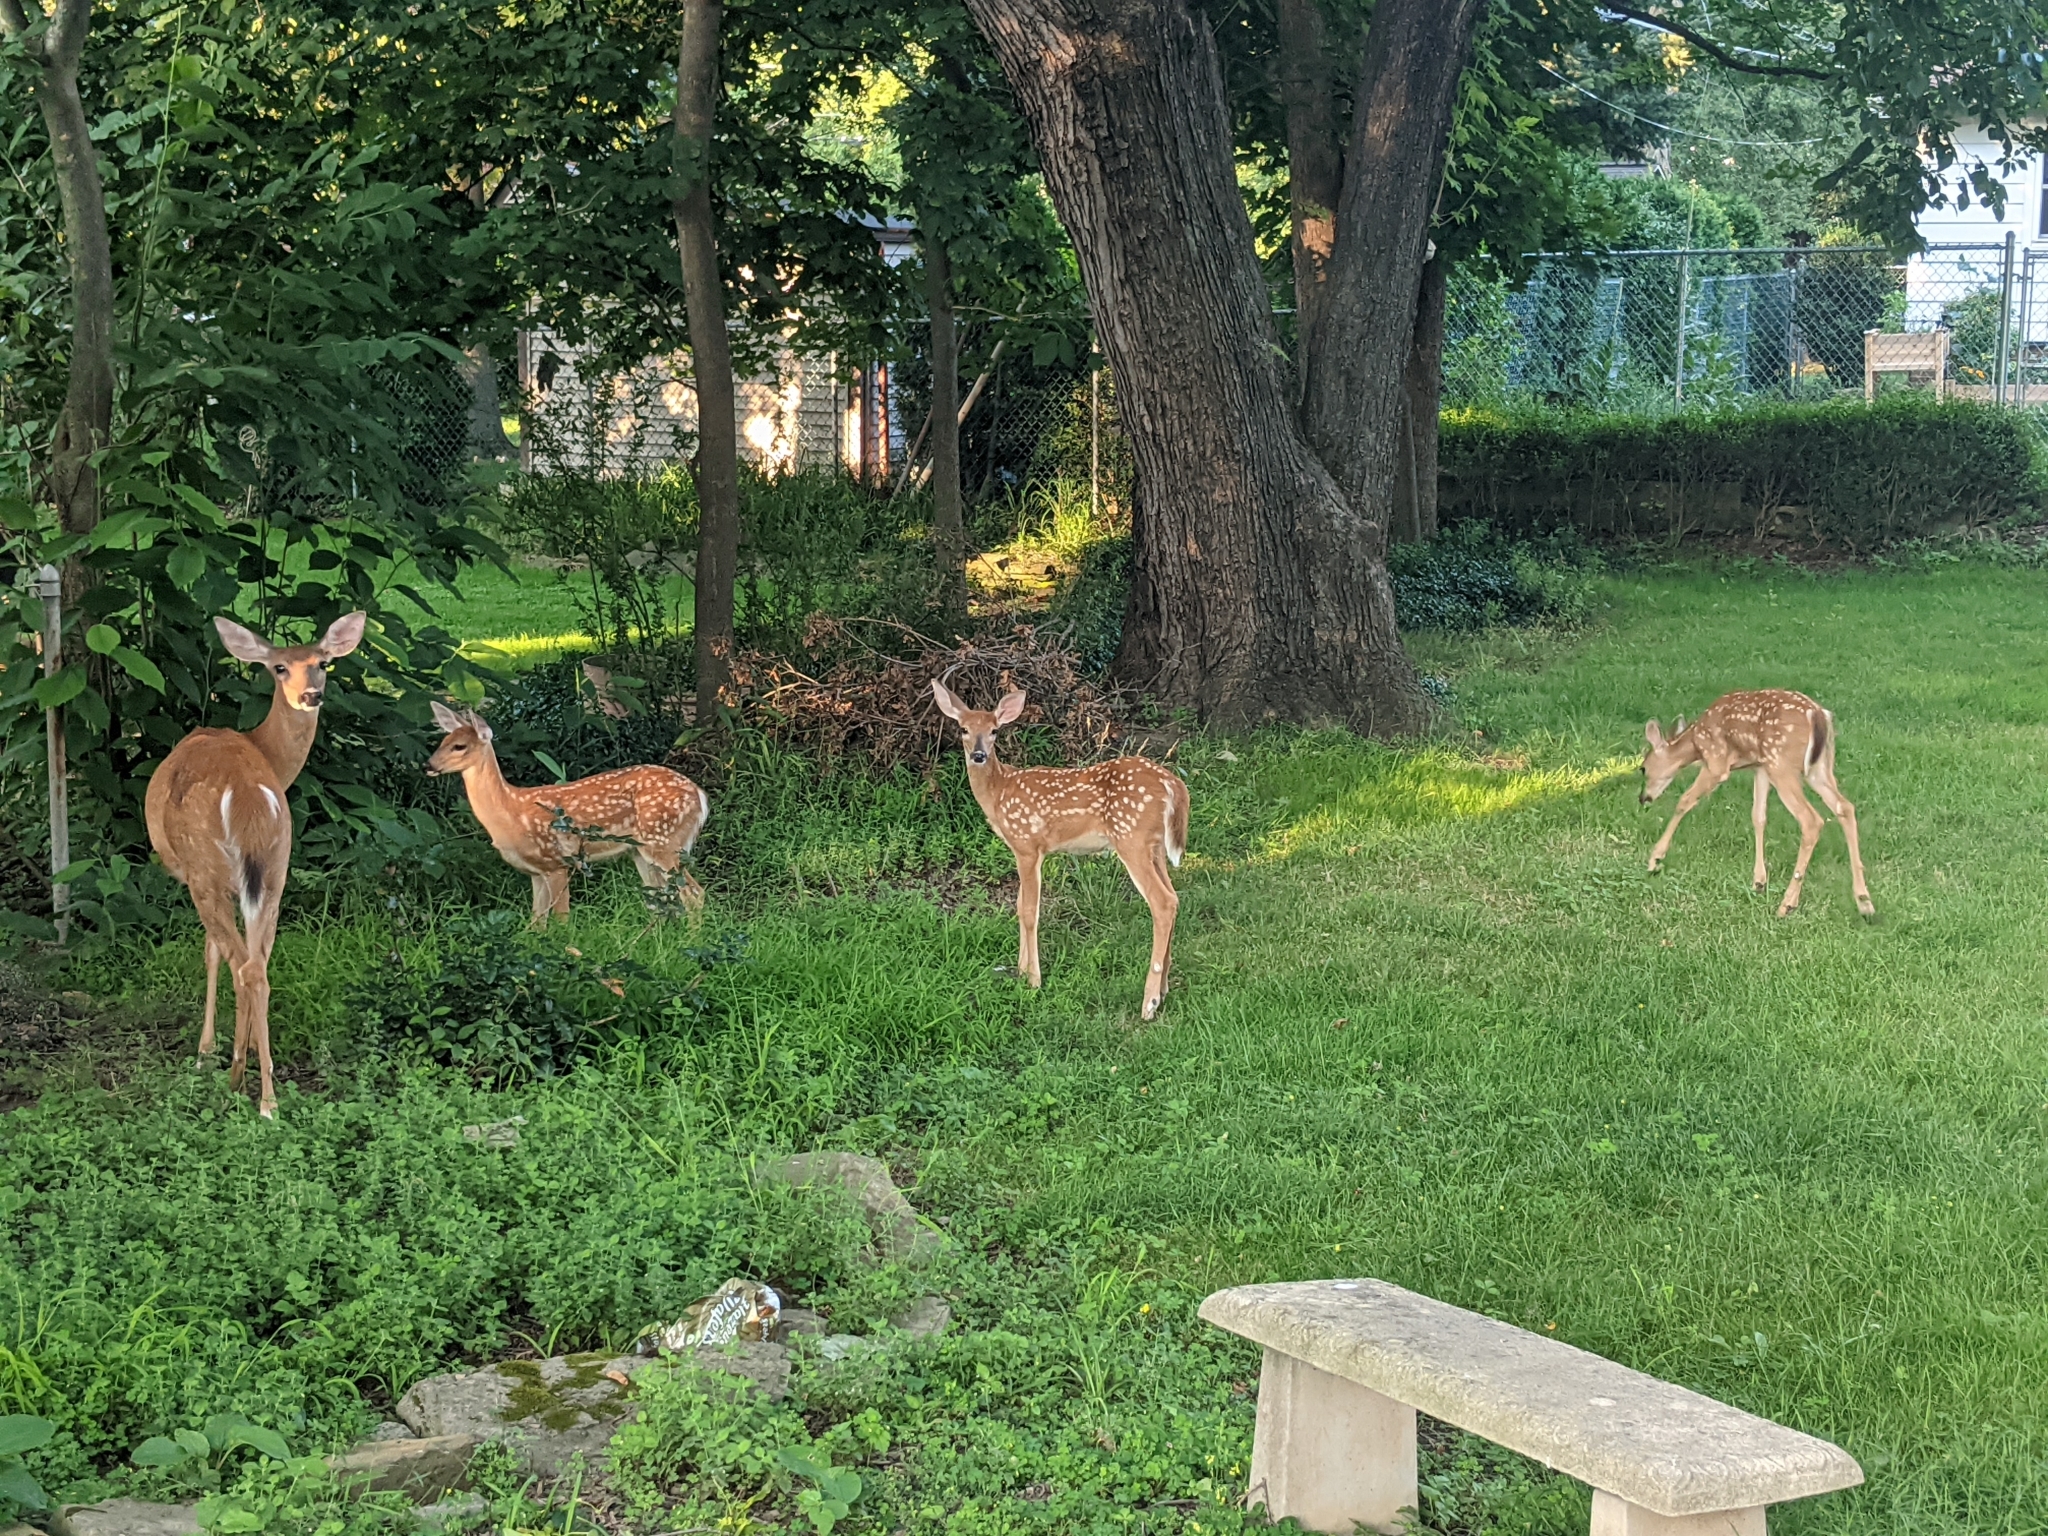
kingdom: Animalia
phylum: Chordata
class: Mammalia
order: Artiodactyla
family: Cervidae
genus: Odocoileus
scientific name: Odocoileus virginianus
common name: White-tailed deer
